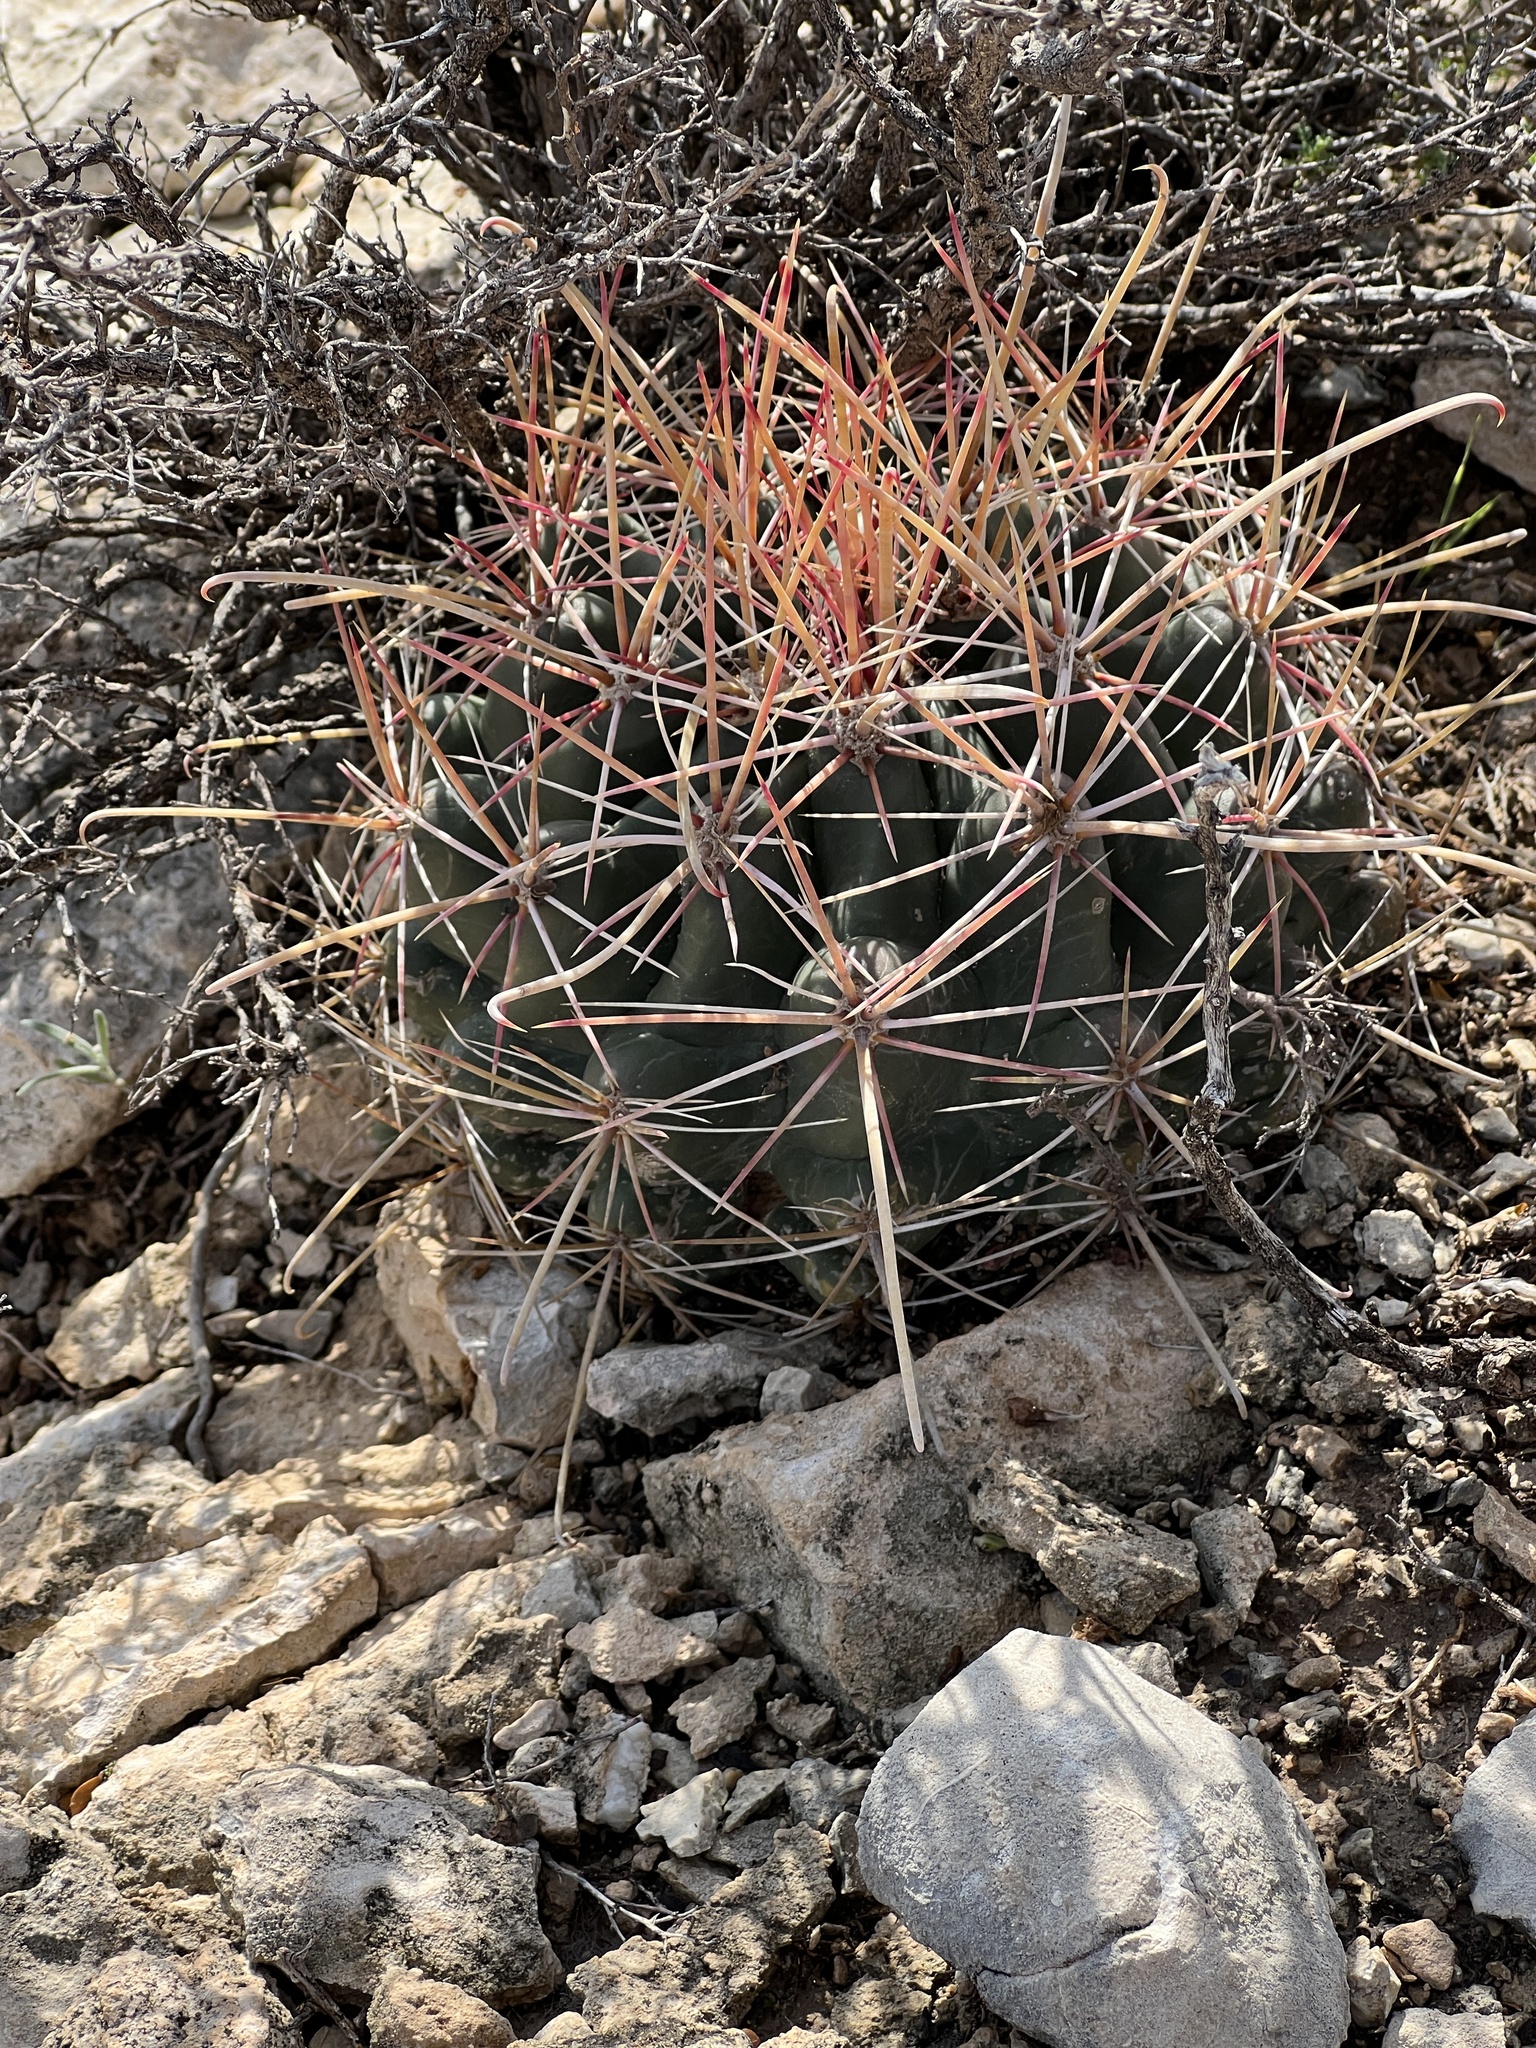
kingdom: Plantae
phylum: Tracheophyta
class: Magnoliopsida
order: Caryophyllales
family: Cactaceae
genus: Bisnaga
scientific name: Bisnaga hamatacantha
